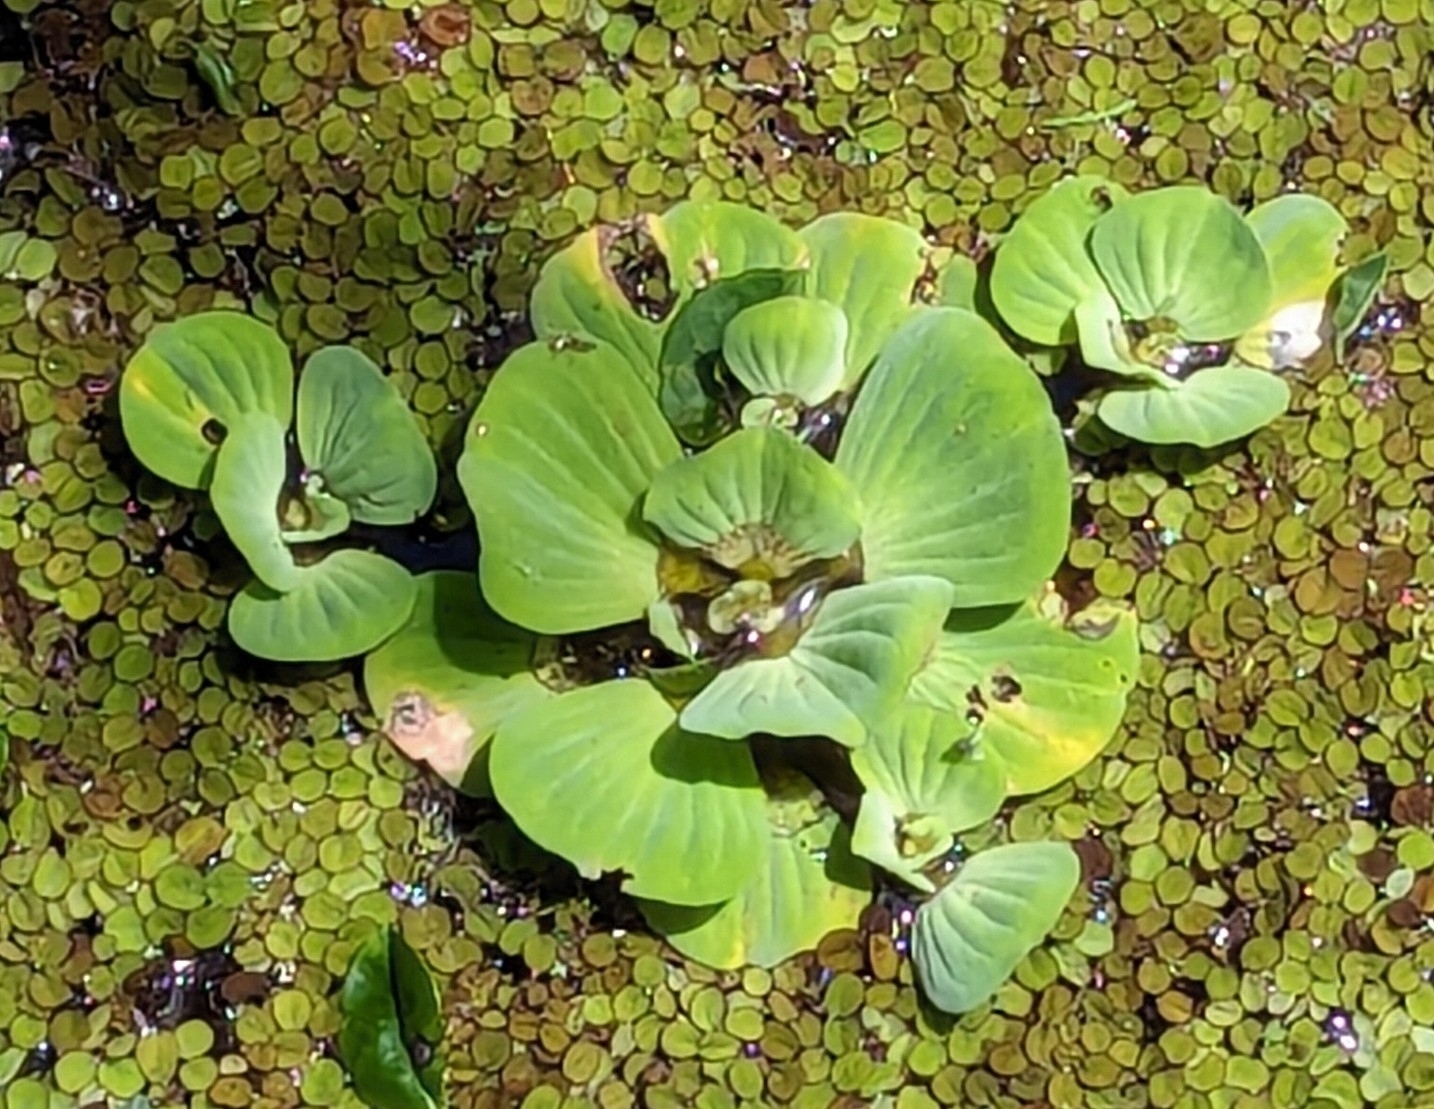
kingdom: Plantae
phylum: Tracheophyta
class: Liliopsida
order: Alismatales
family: Araceae
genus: Pistia
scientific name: Pistia stratiotes
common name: Water lettuce
